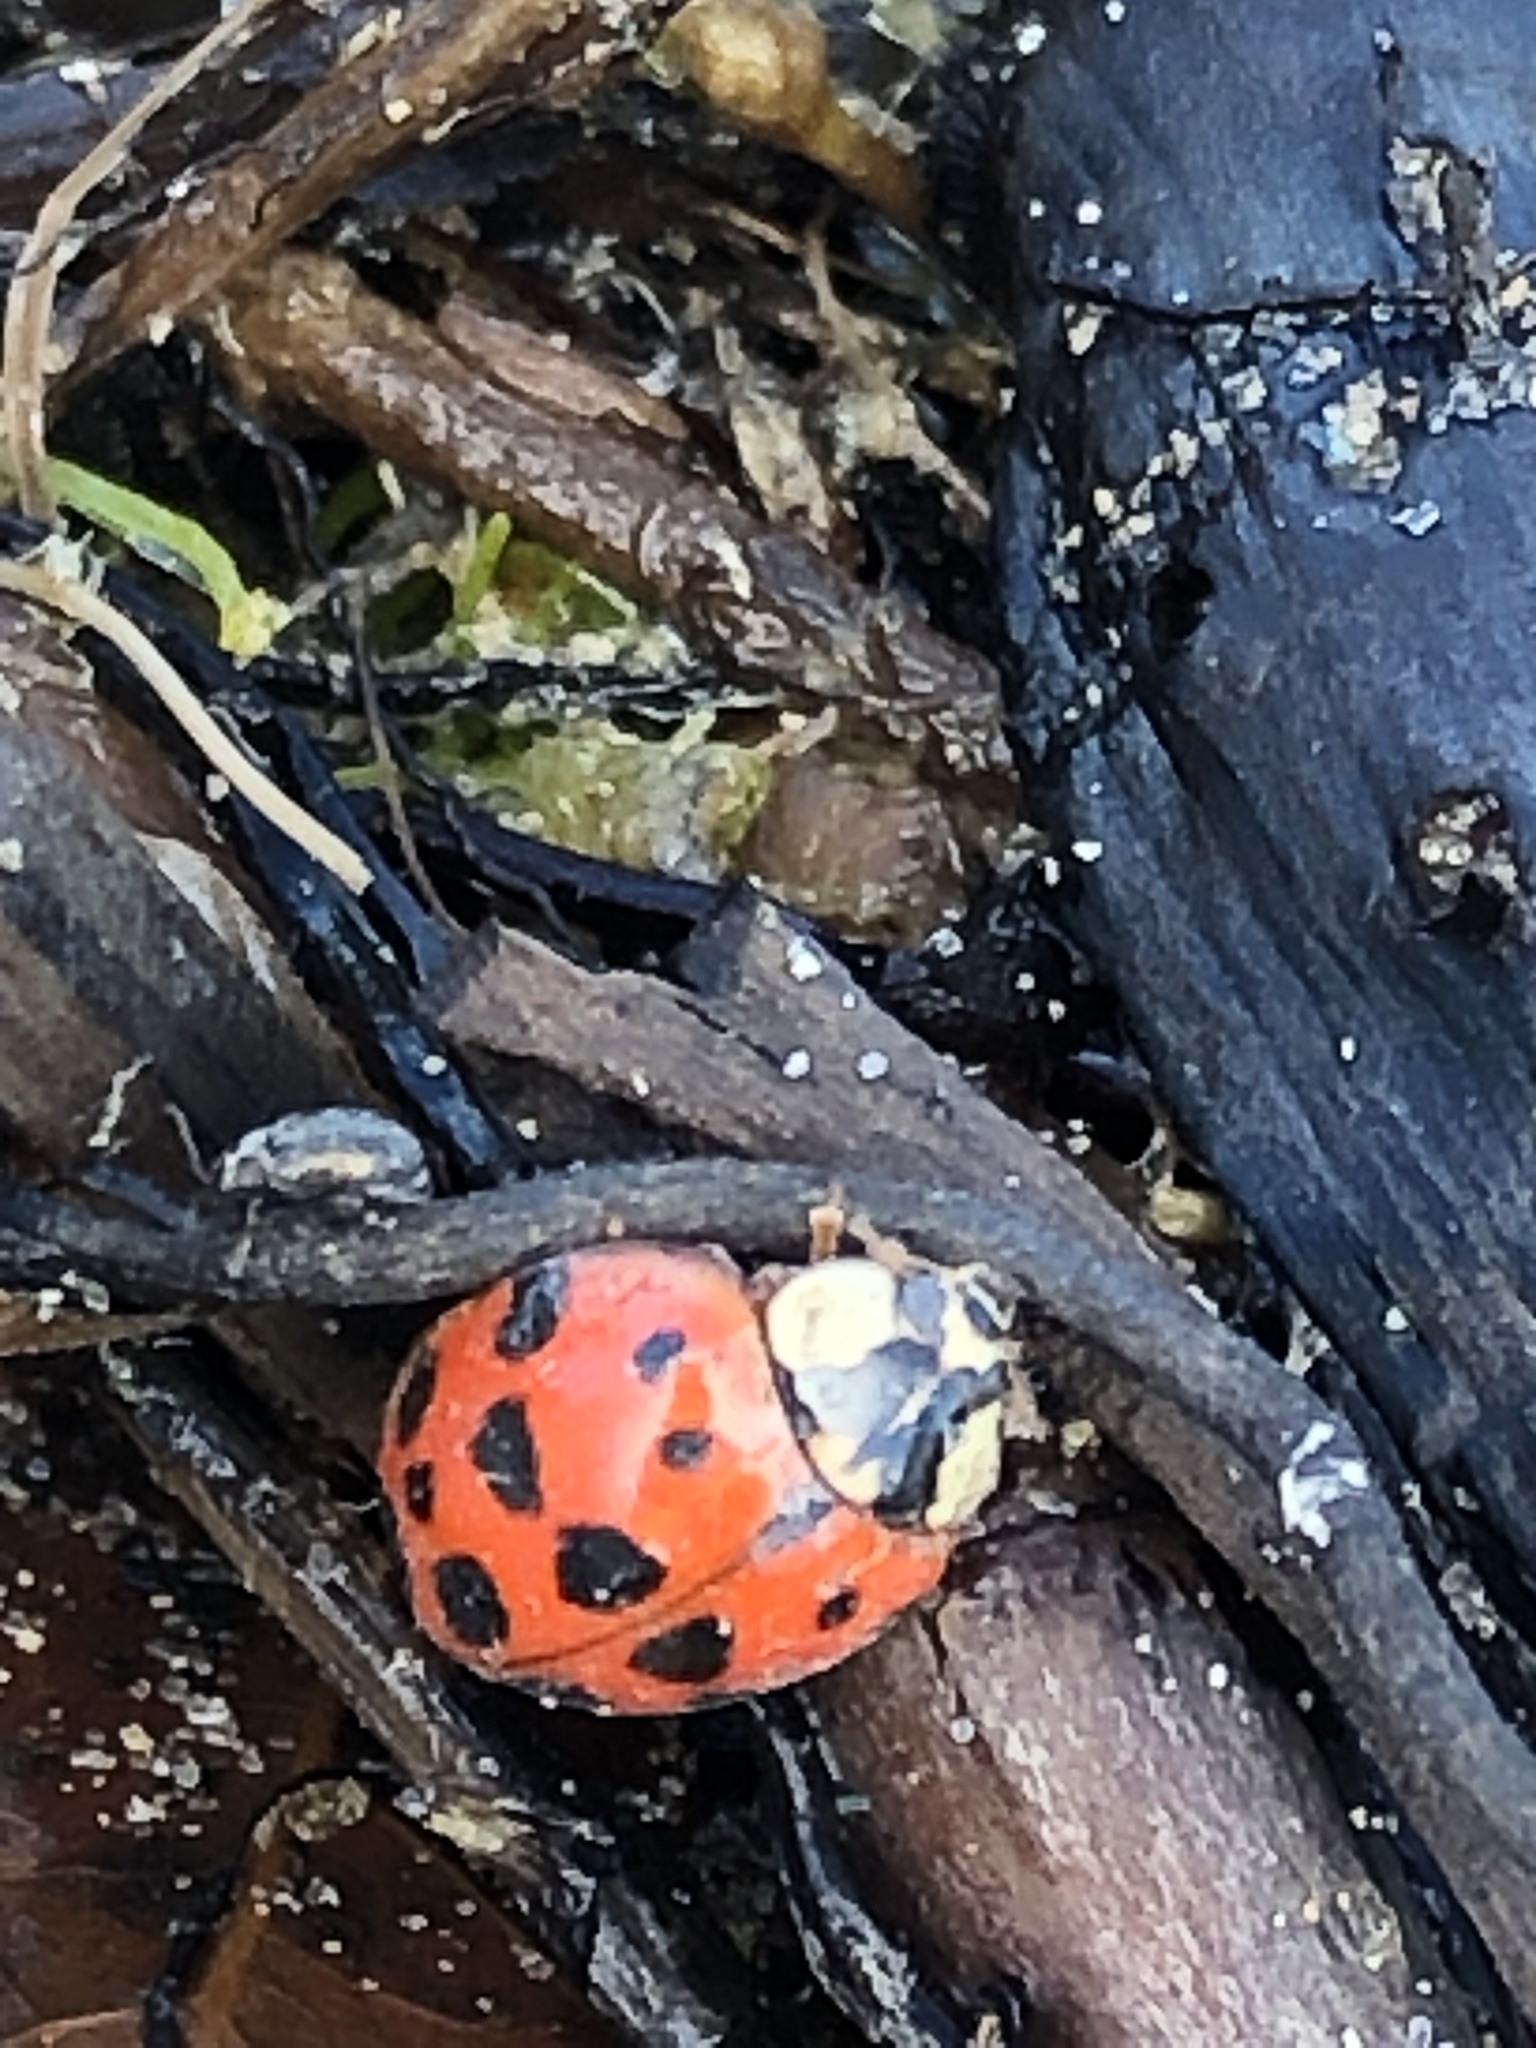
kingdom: Animalia
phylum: Arthropoda
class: Insecta
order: Coleoptera
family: Coccinellidae
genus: Harmonia
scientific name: Harmonia axyridis
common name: Harlequin ladybird
